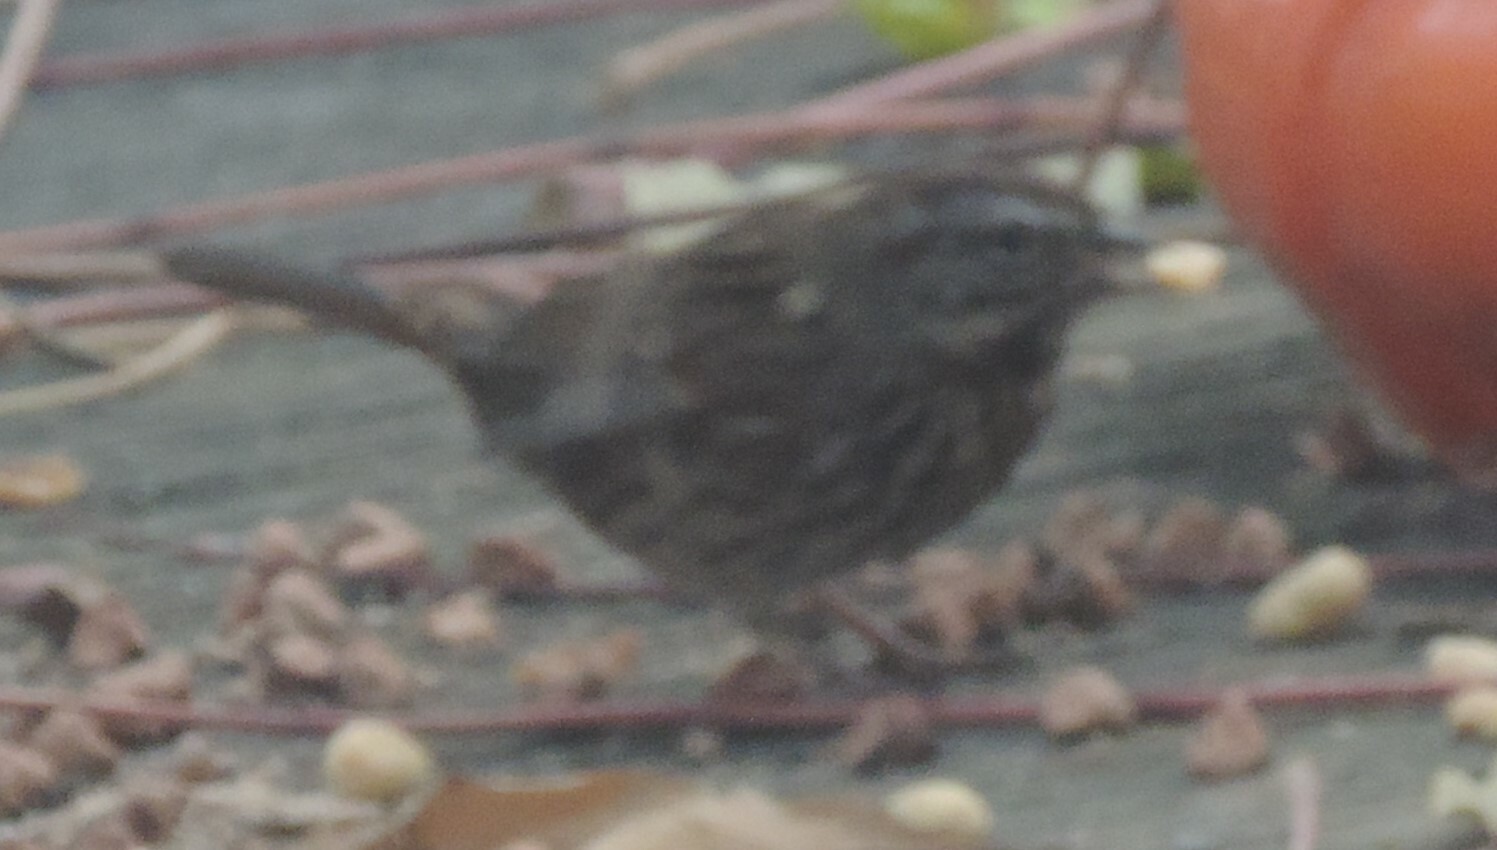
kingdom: Animalia
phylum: Chordata
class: Aves
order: Passeriformes
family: Passerellidae
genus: Melospiza
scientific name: Melospiza melodia
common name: Song sparrow
